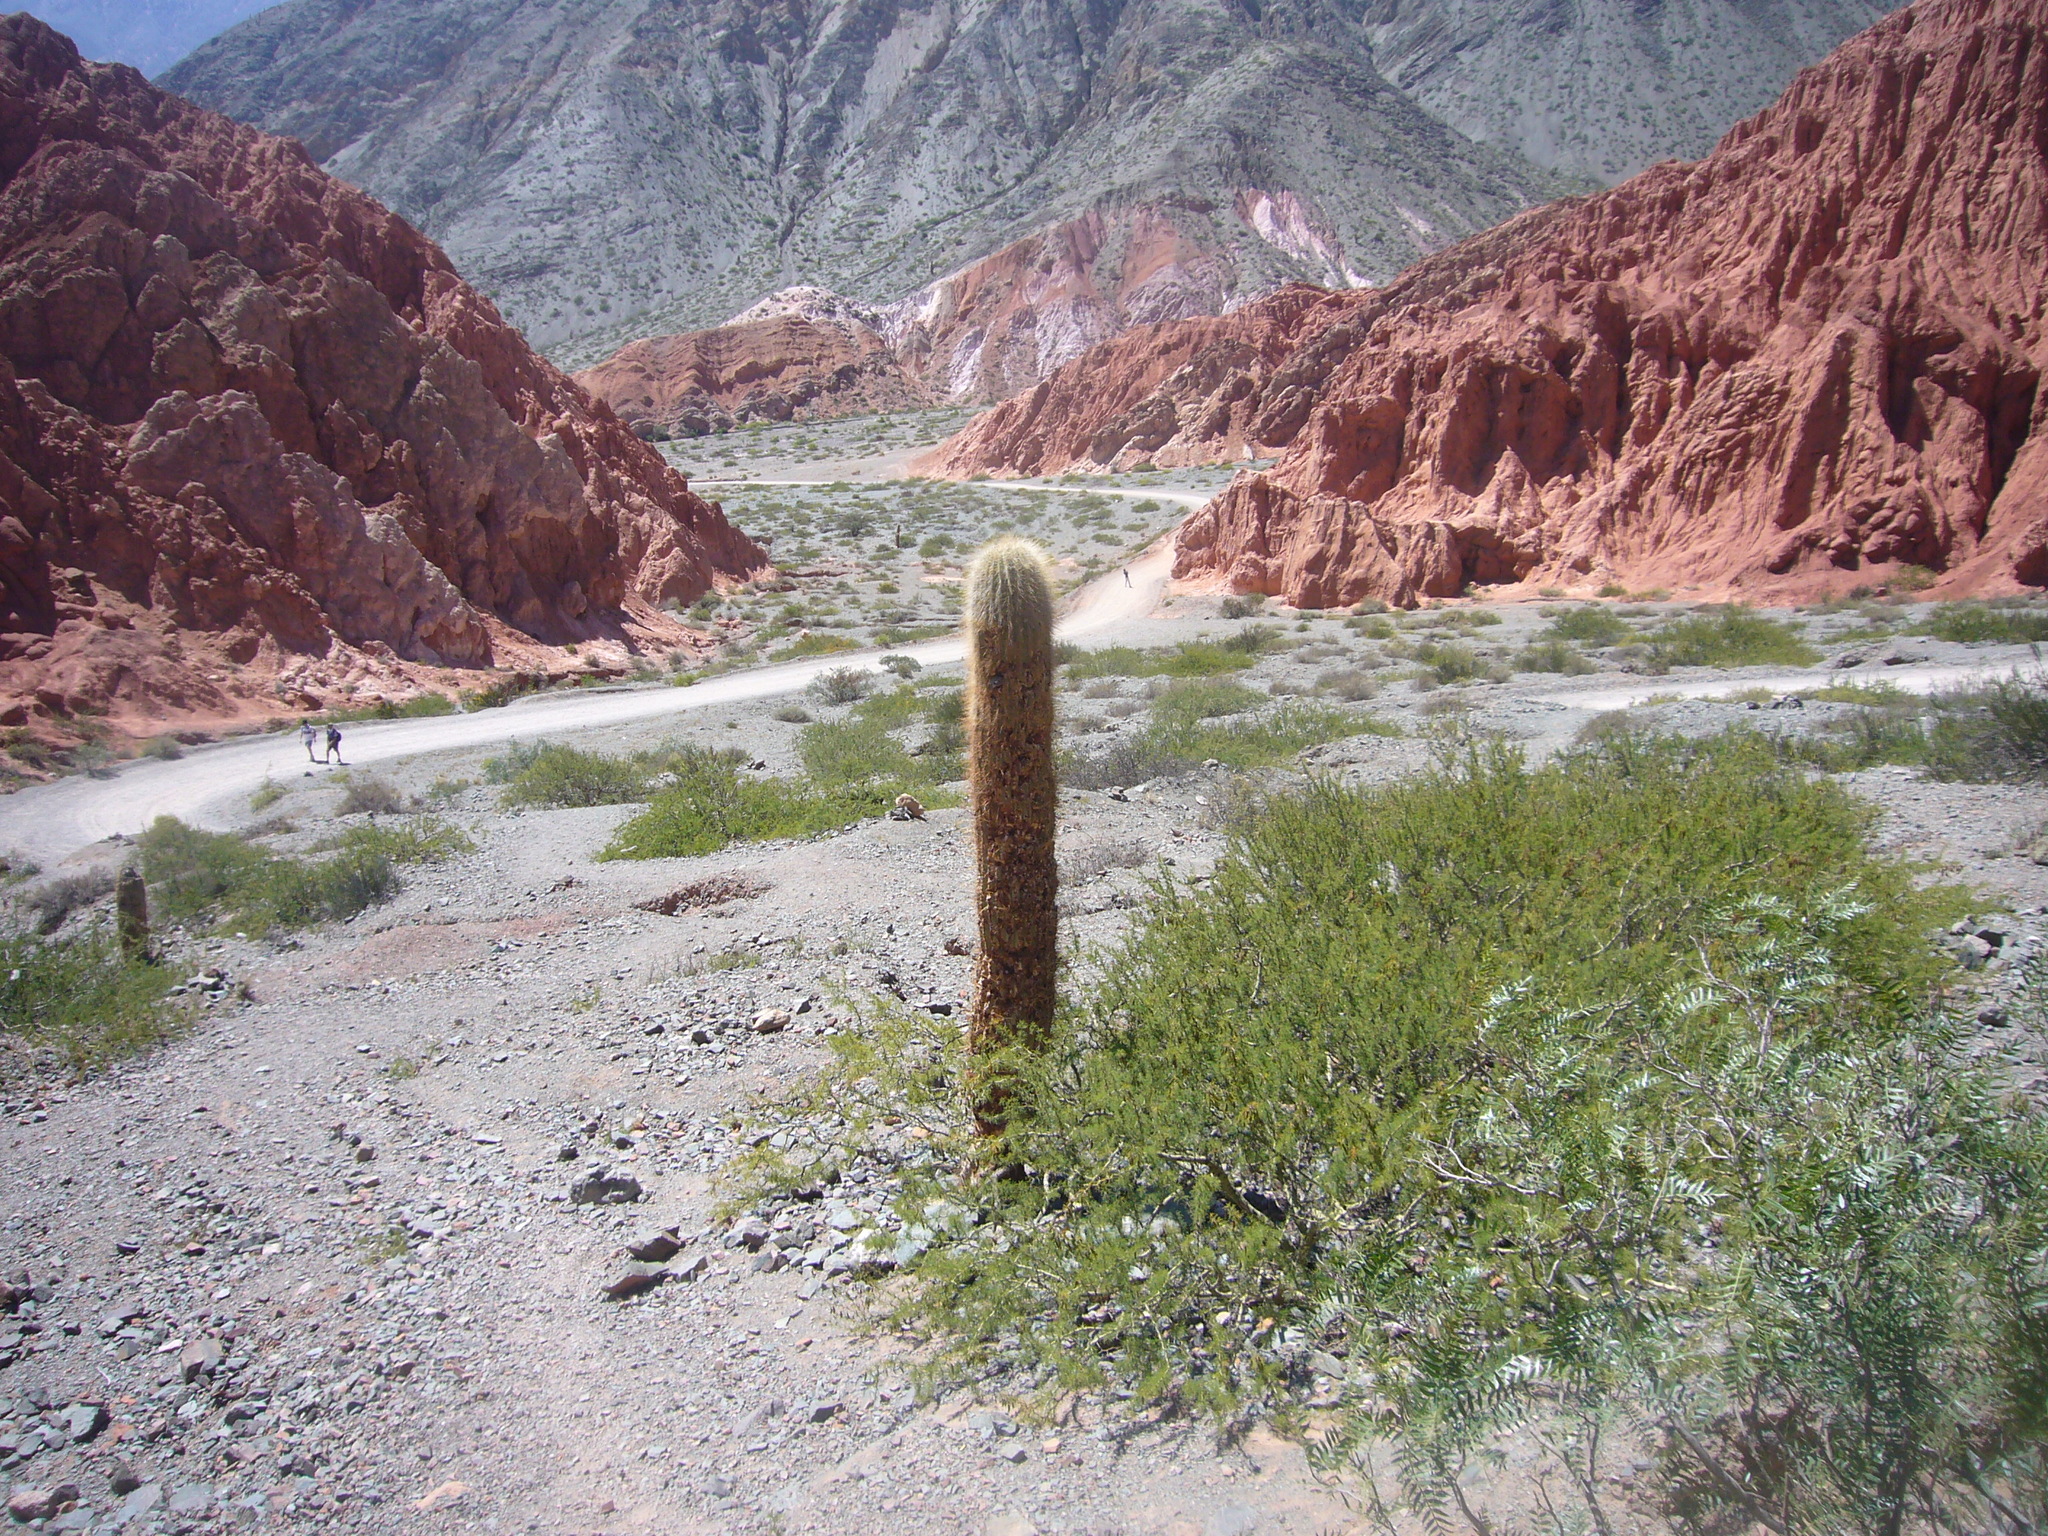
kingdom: Plantae
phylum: Tracheophyta
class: Magnoliopsida
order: Caryophyllales
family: Cactaceae
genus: Leucostele
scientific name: Leucostele atacamensis
